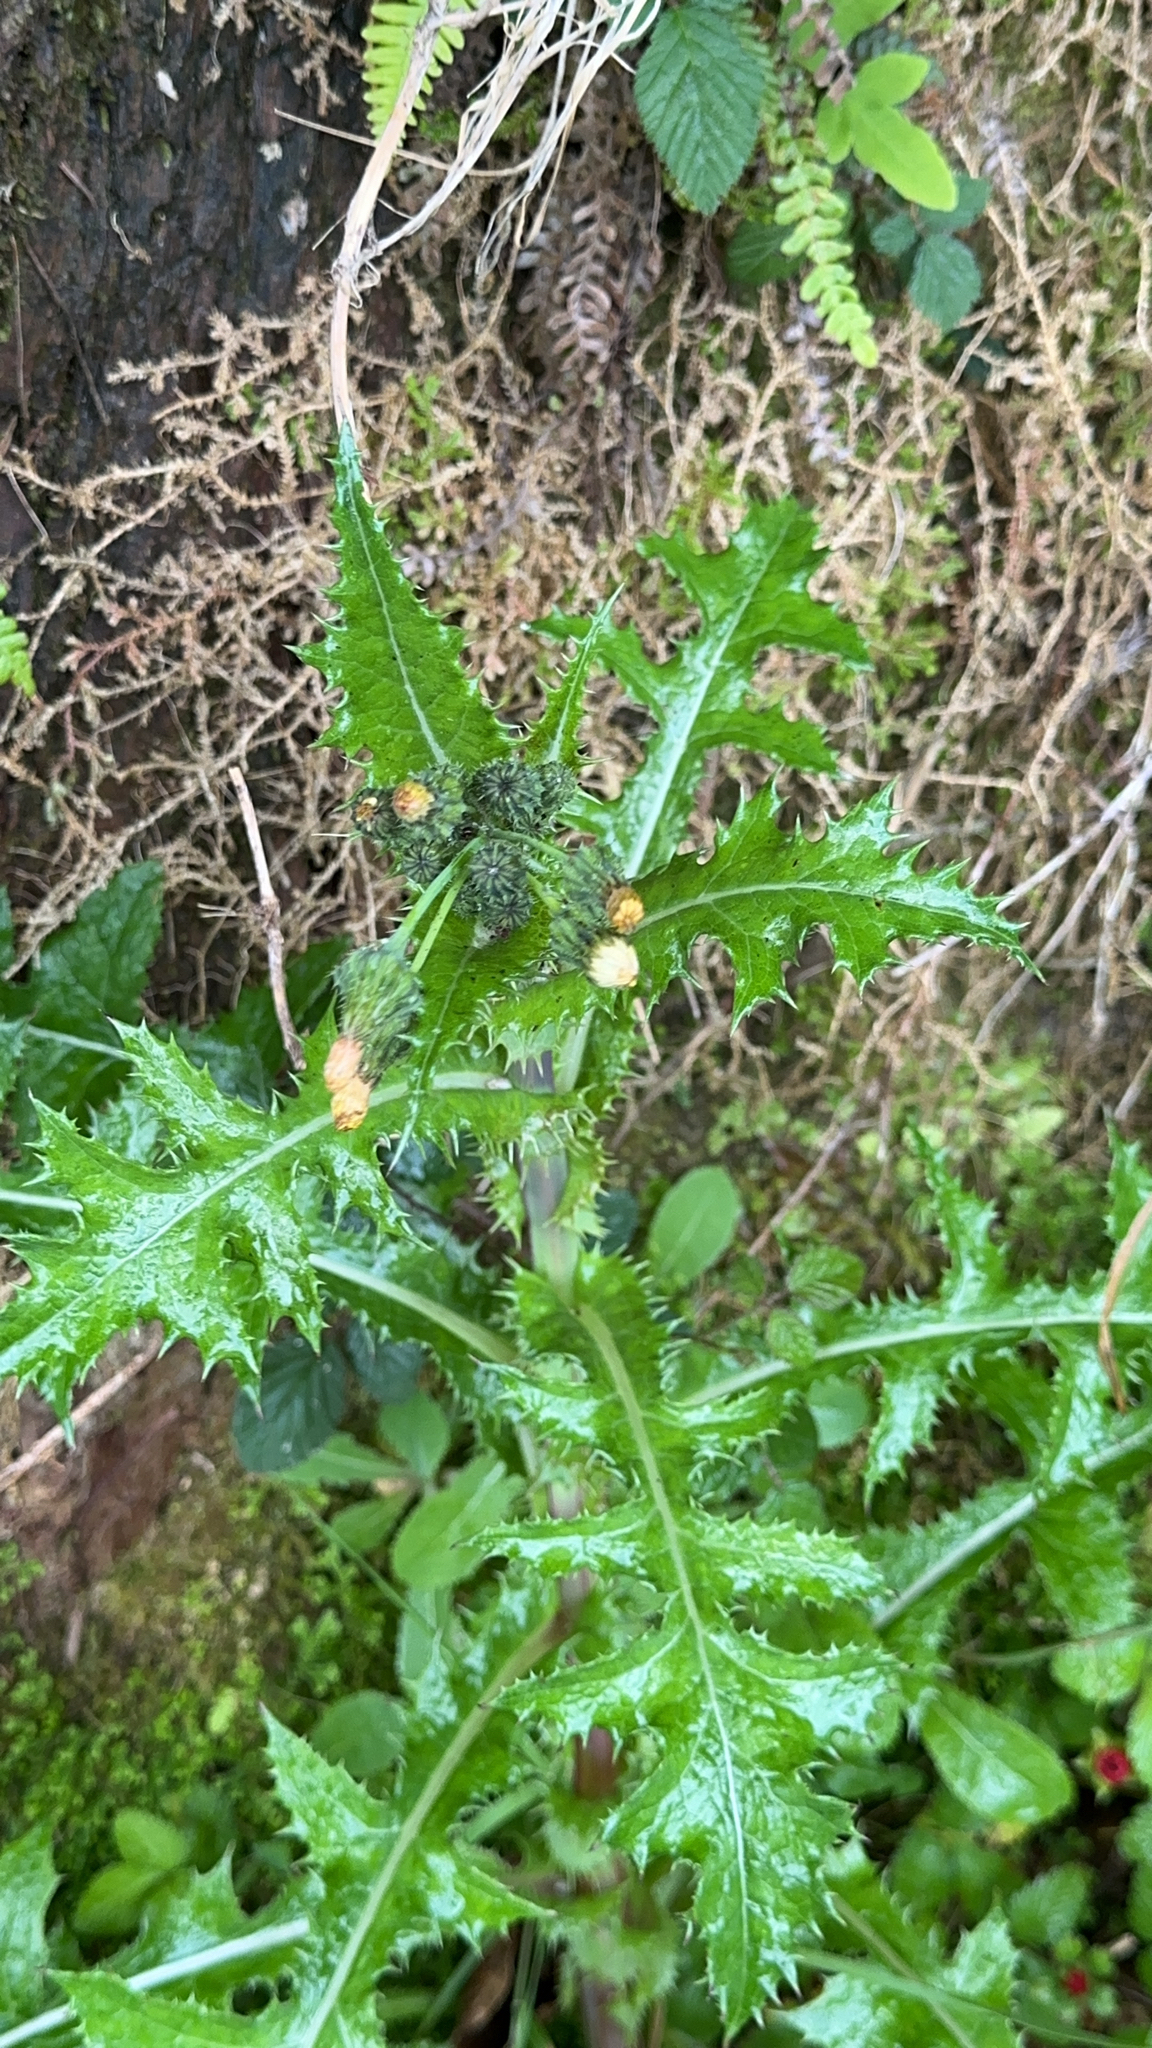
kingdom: Plantae
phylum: Tracheophyta
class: Magnoliopsida
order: Asterales
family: Asteraceae
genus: Sonchus
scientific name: Sonchus asper
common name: Prickly sow-thistle
